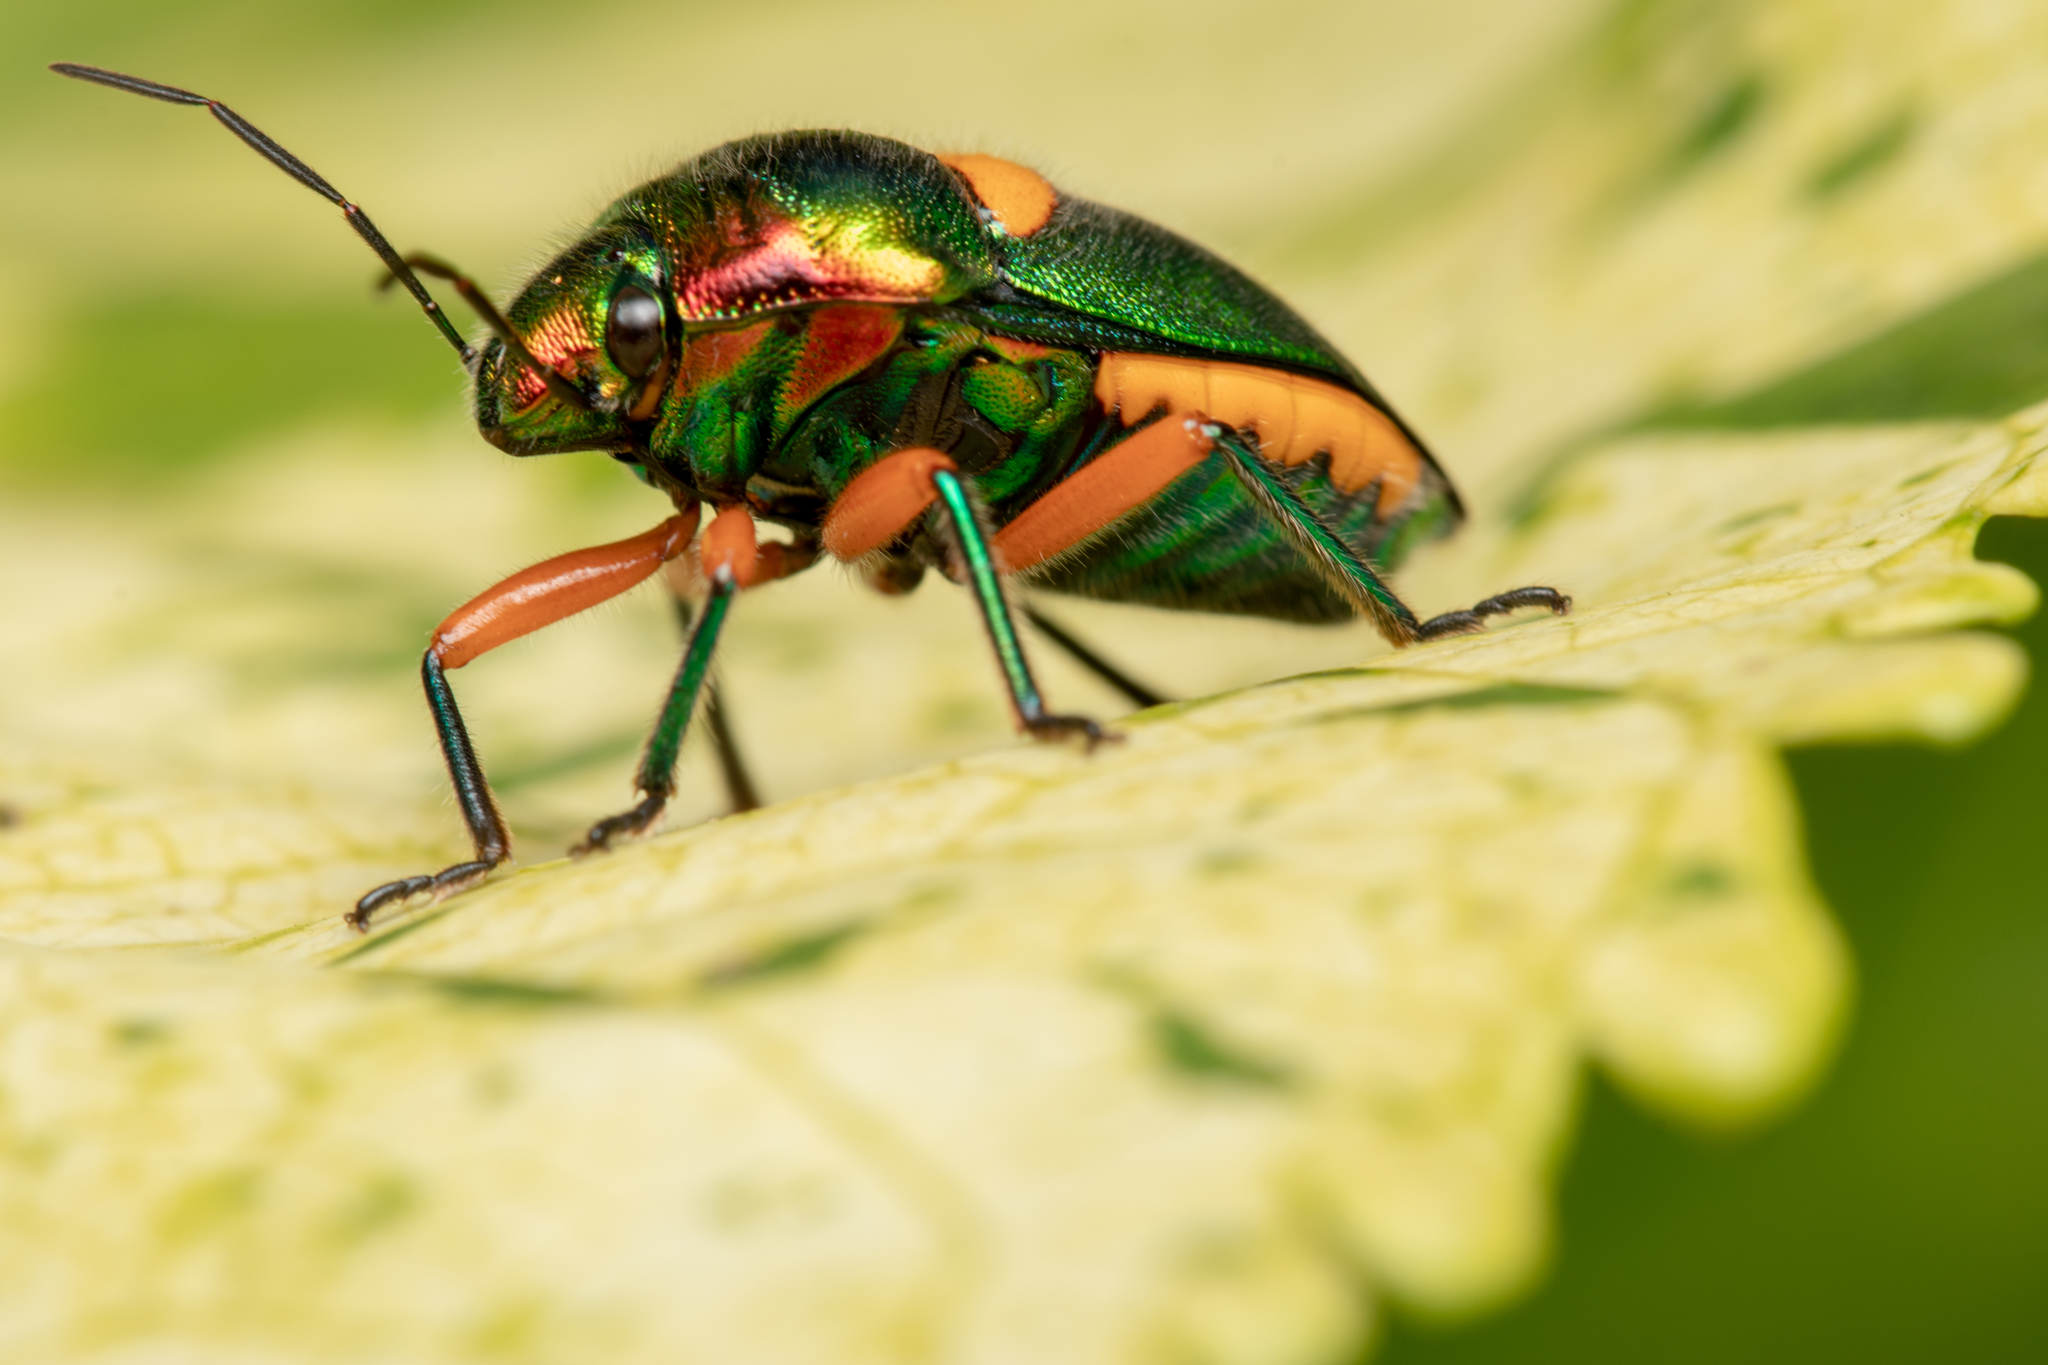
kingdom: Animalia
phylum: Arthropoda
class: Insecta
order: Hemiptera
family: Scutelleridae
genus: Lampromicra
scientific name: Lampromicra senator
